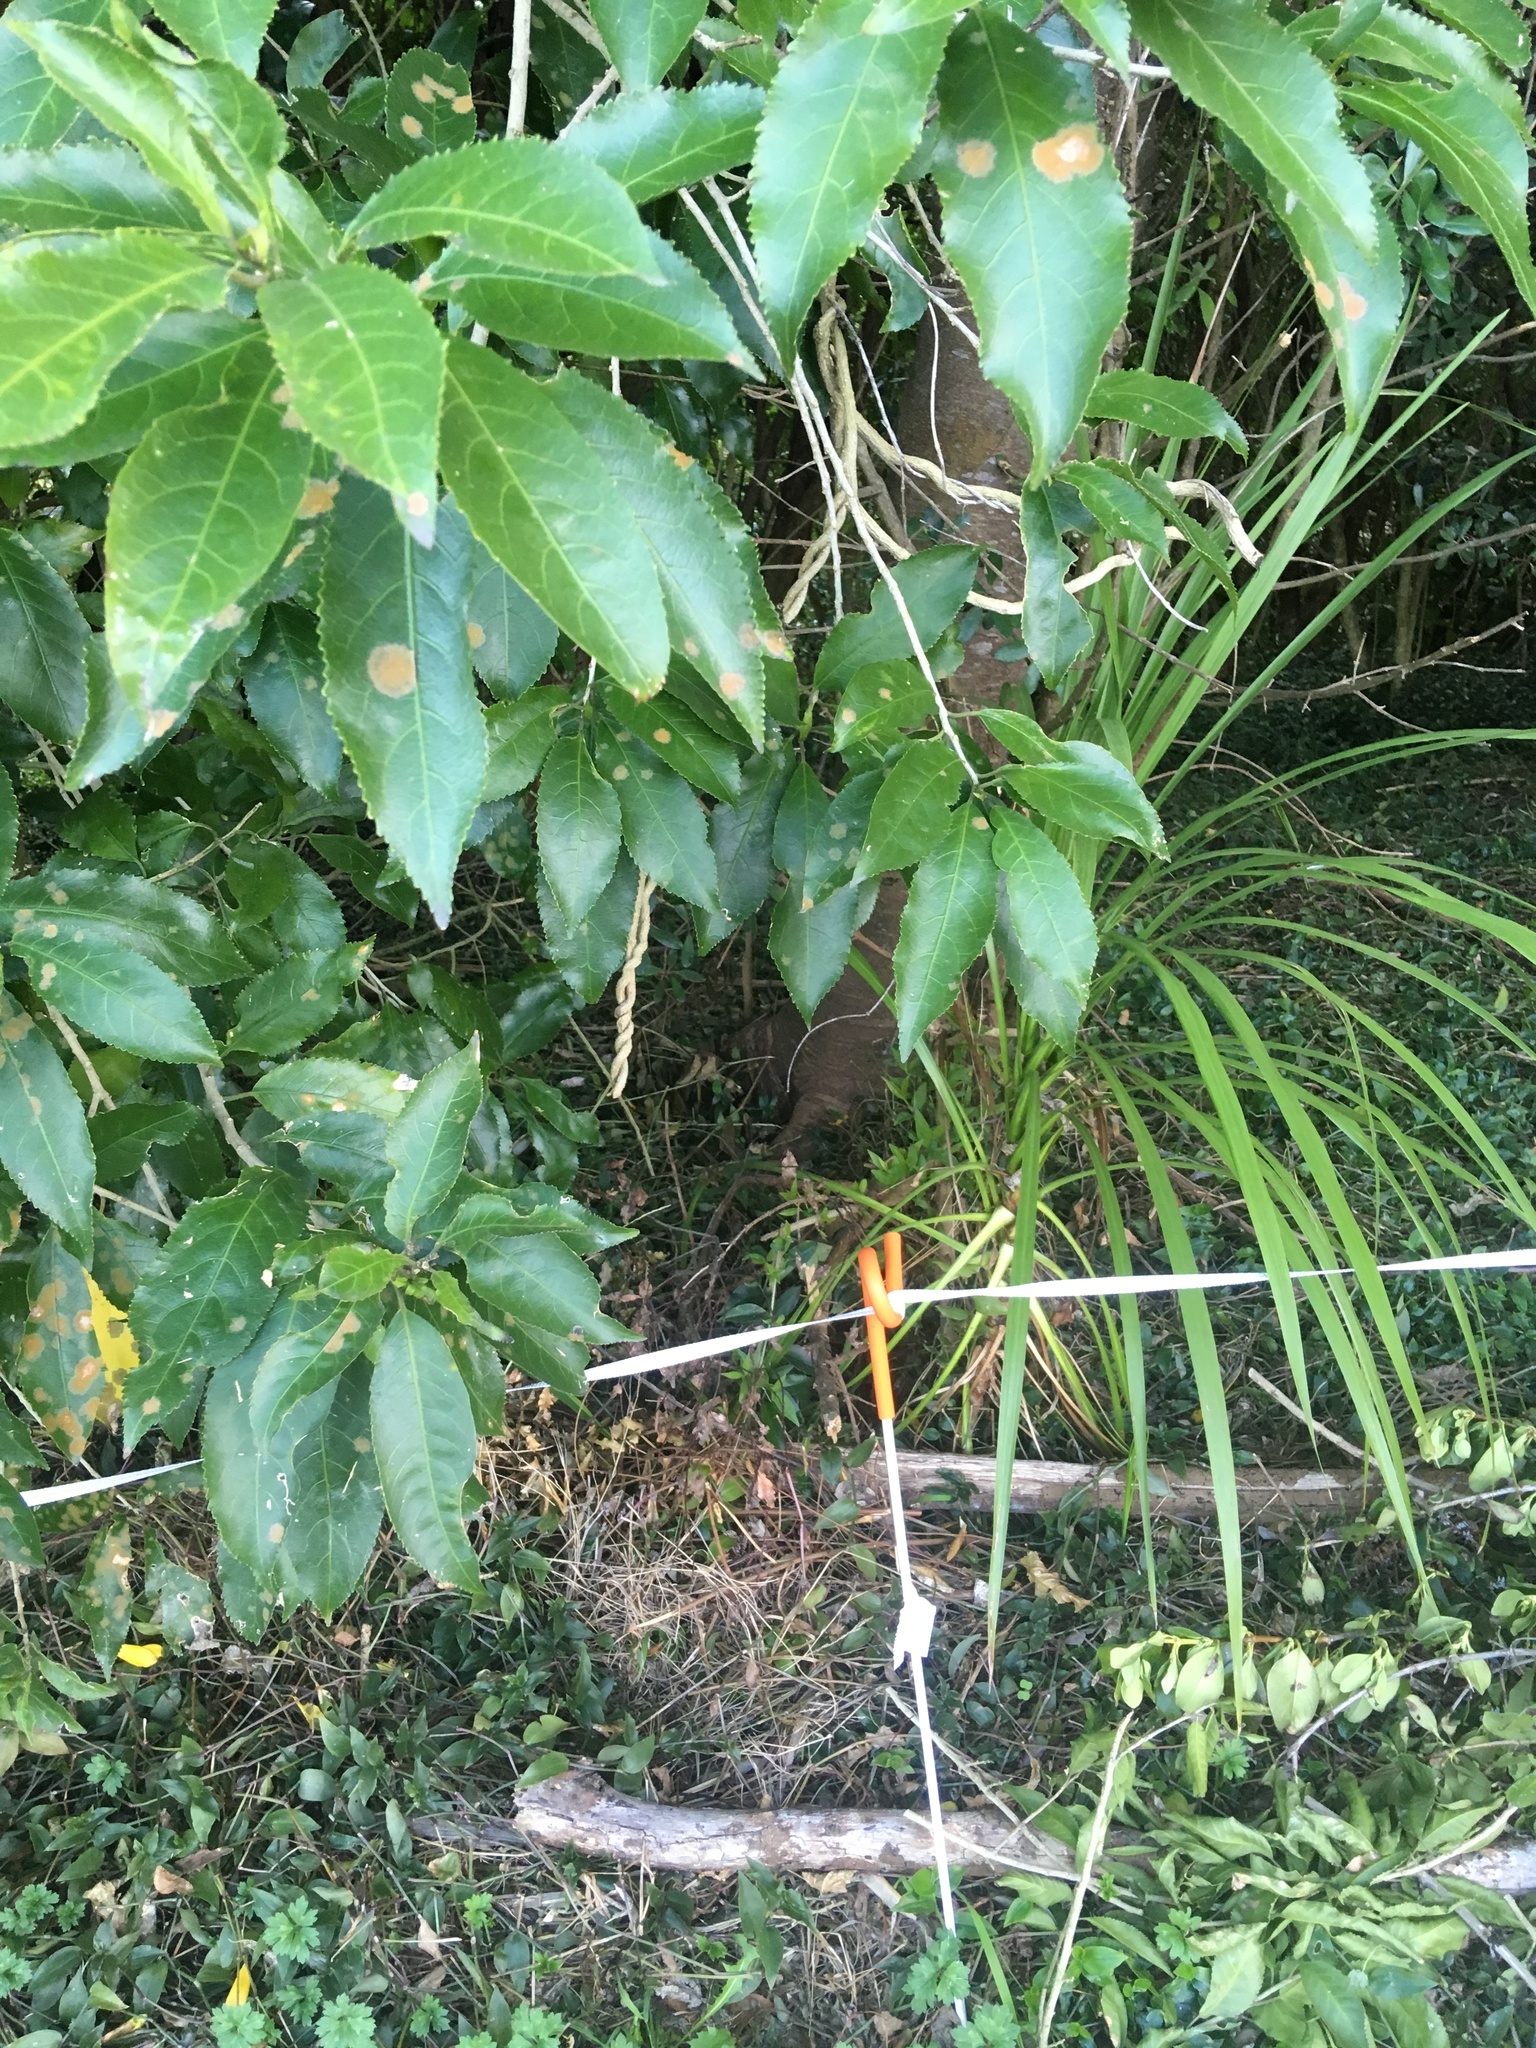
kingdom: Plantae
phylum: Tracheophyta
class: Magnoliopsida
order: Gentianales
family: Apocynaceae
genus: Araujia
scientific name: Araujia sericifera
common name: White bladderflower
